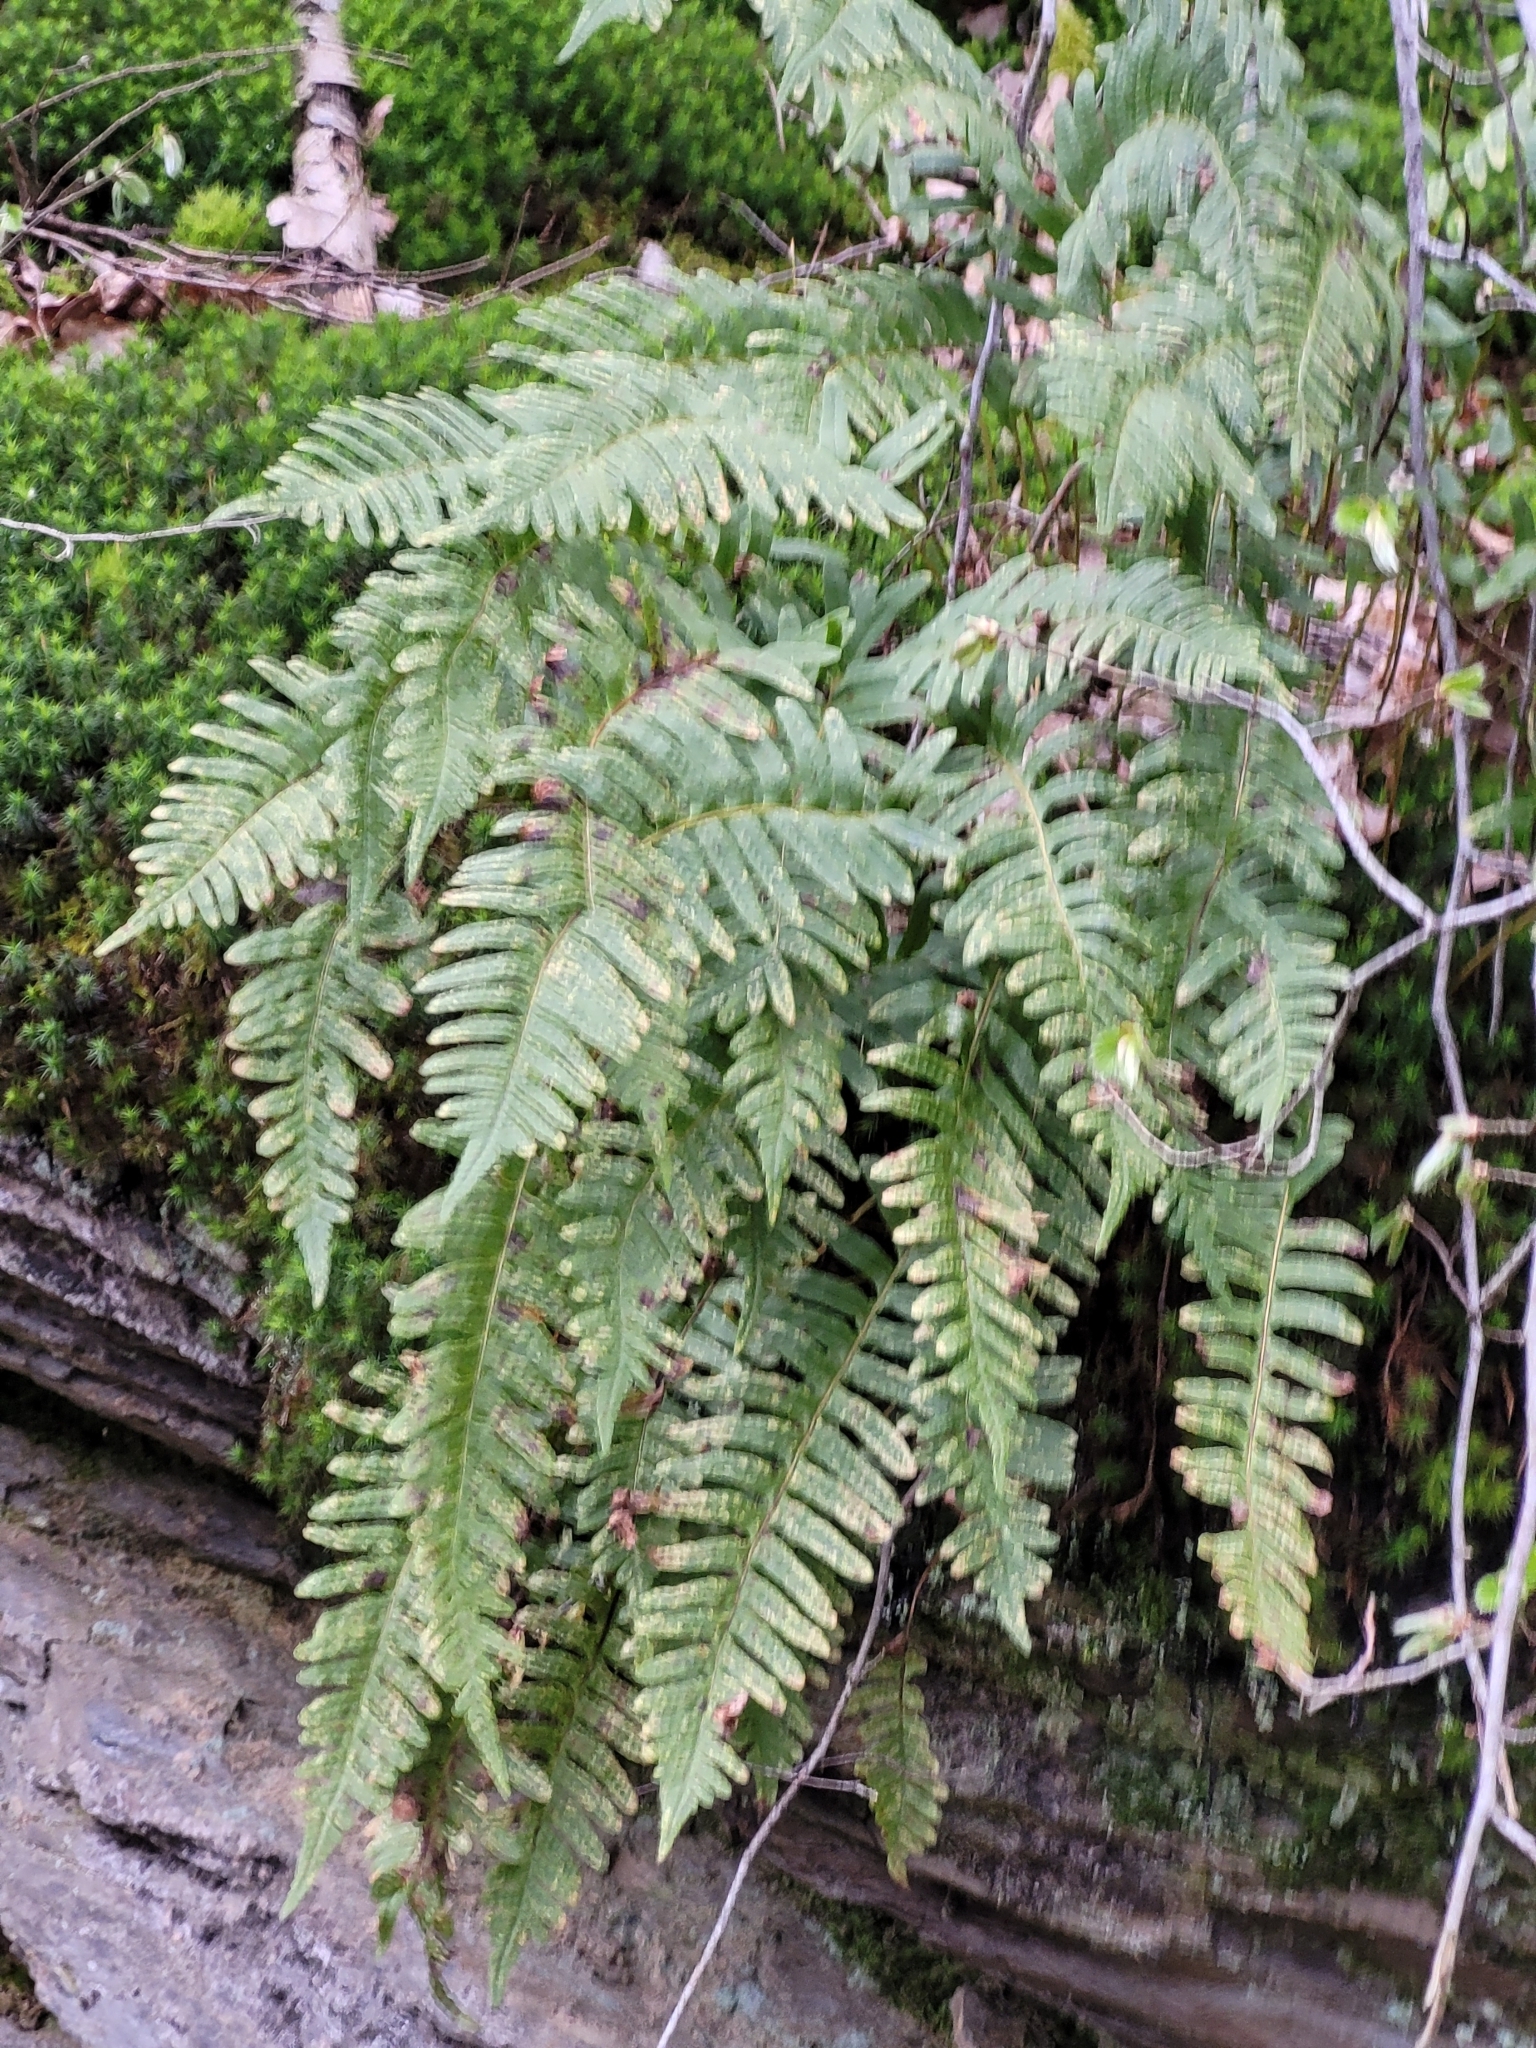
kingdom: Plantae
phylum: Tracheophyta
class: Polypodiopsida
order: Polypodiales
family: Polypodiaceae
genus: Polypodium
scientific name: Polypodium vulgare
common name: Common polypody
